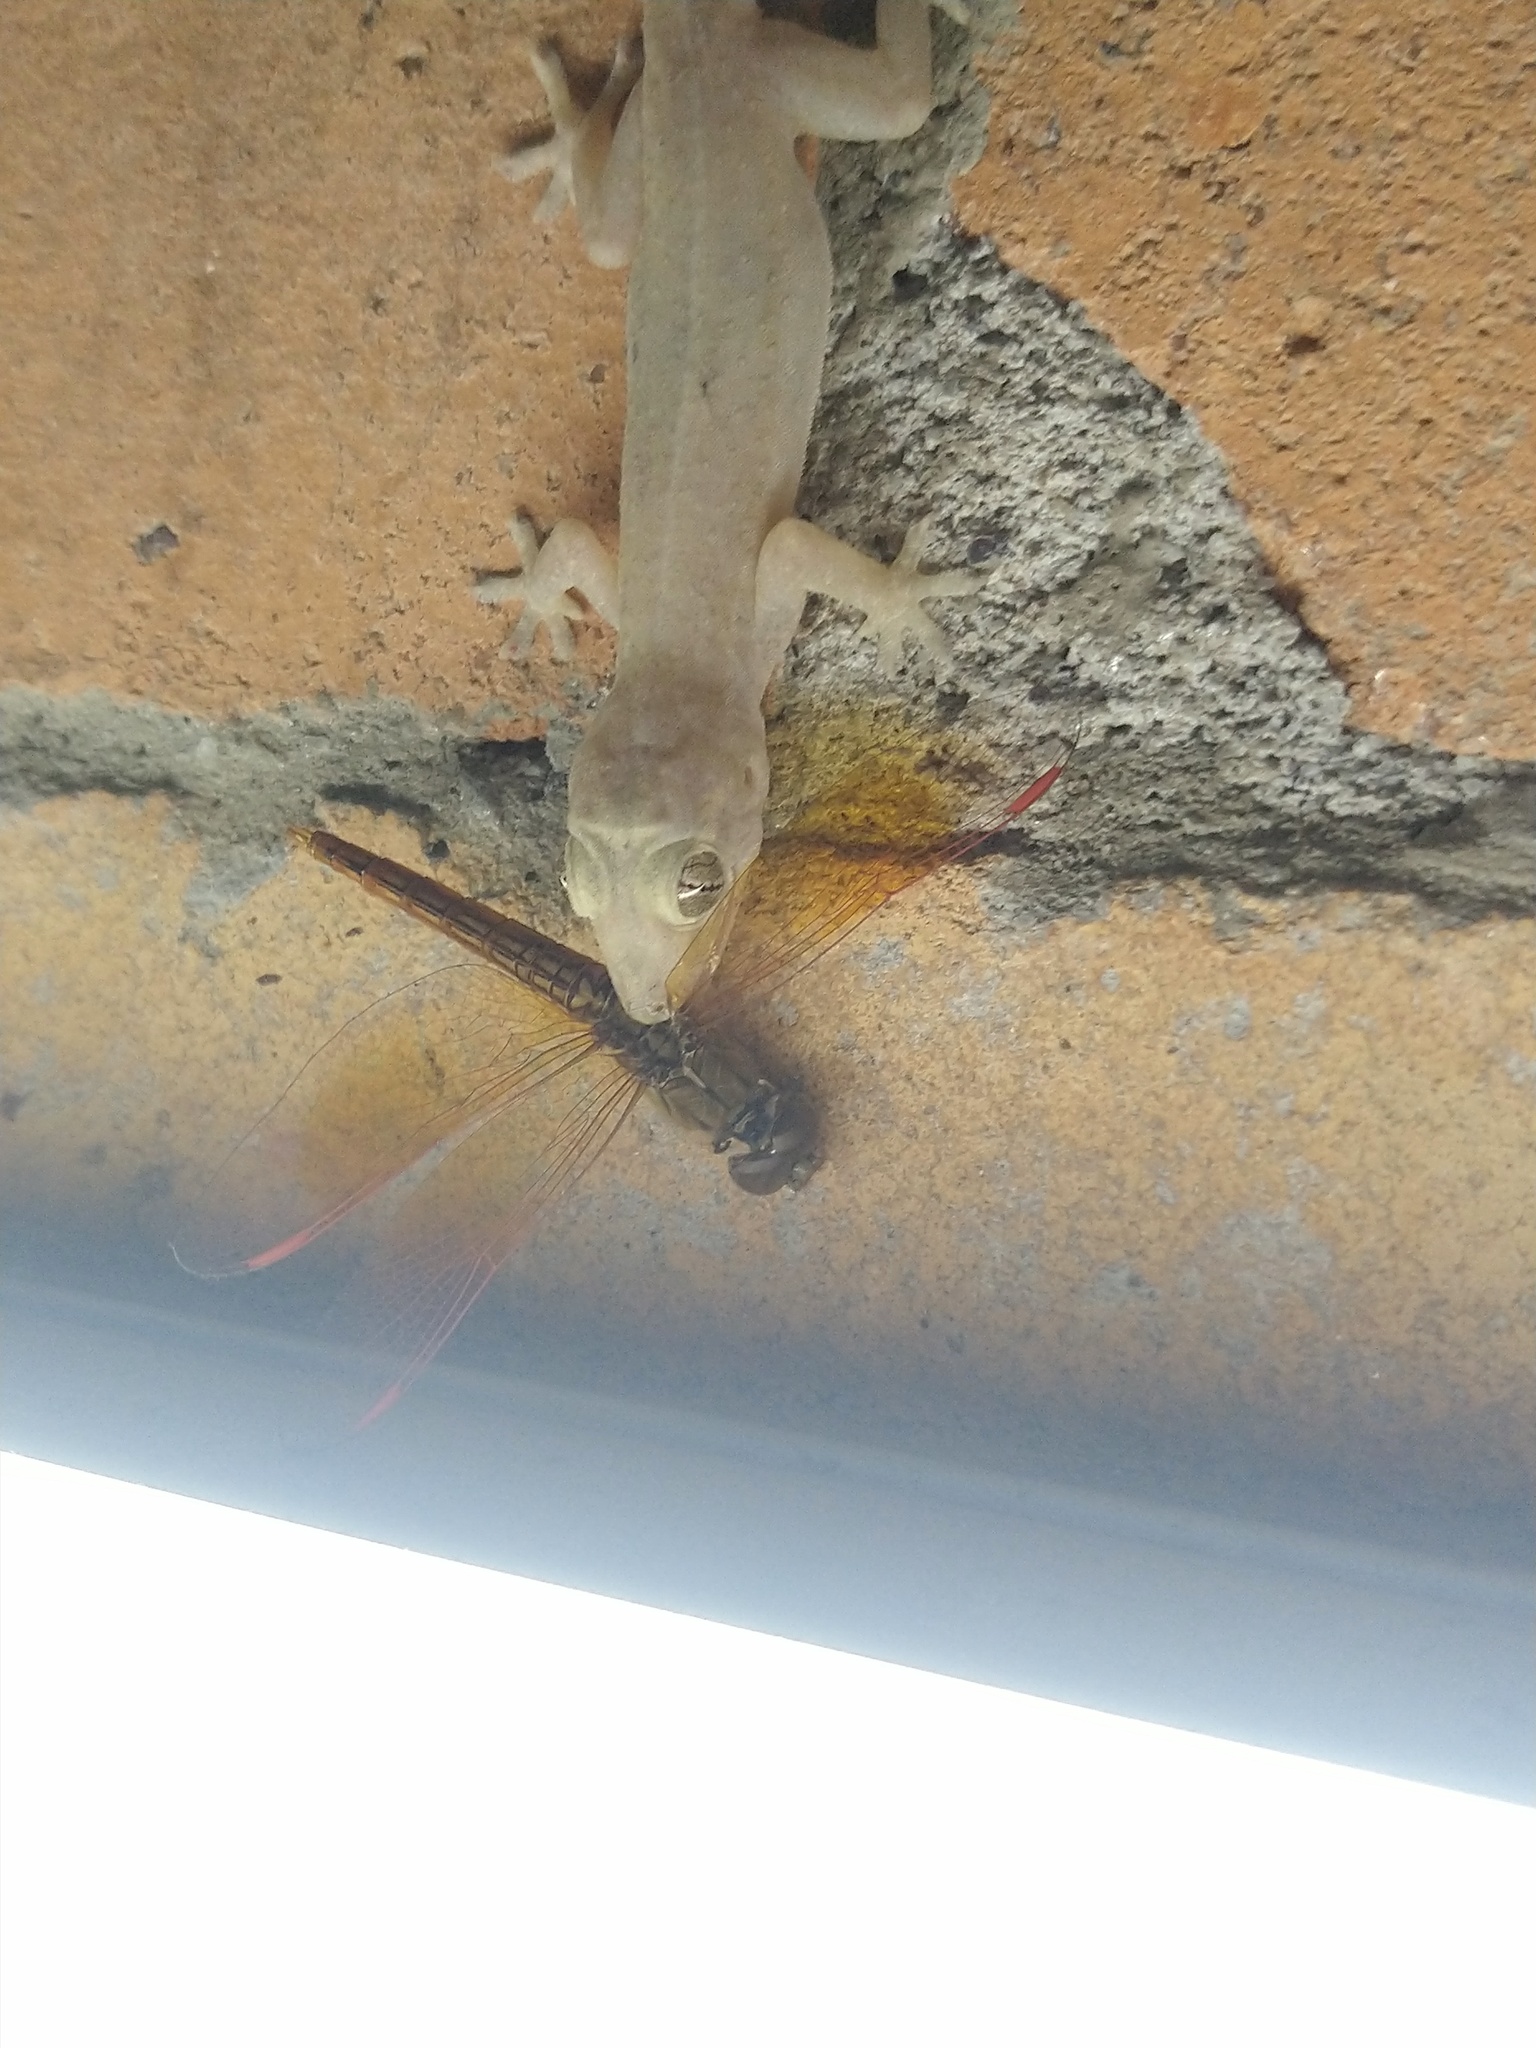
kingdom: Animalia
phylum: Arthropoda
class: Insecta
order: Odonata
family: Libellulidae
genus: Brachythemis
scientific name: Brachythemis contaminata
